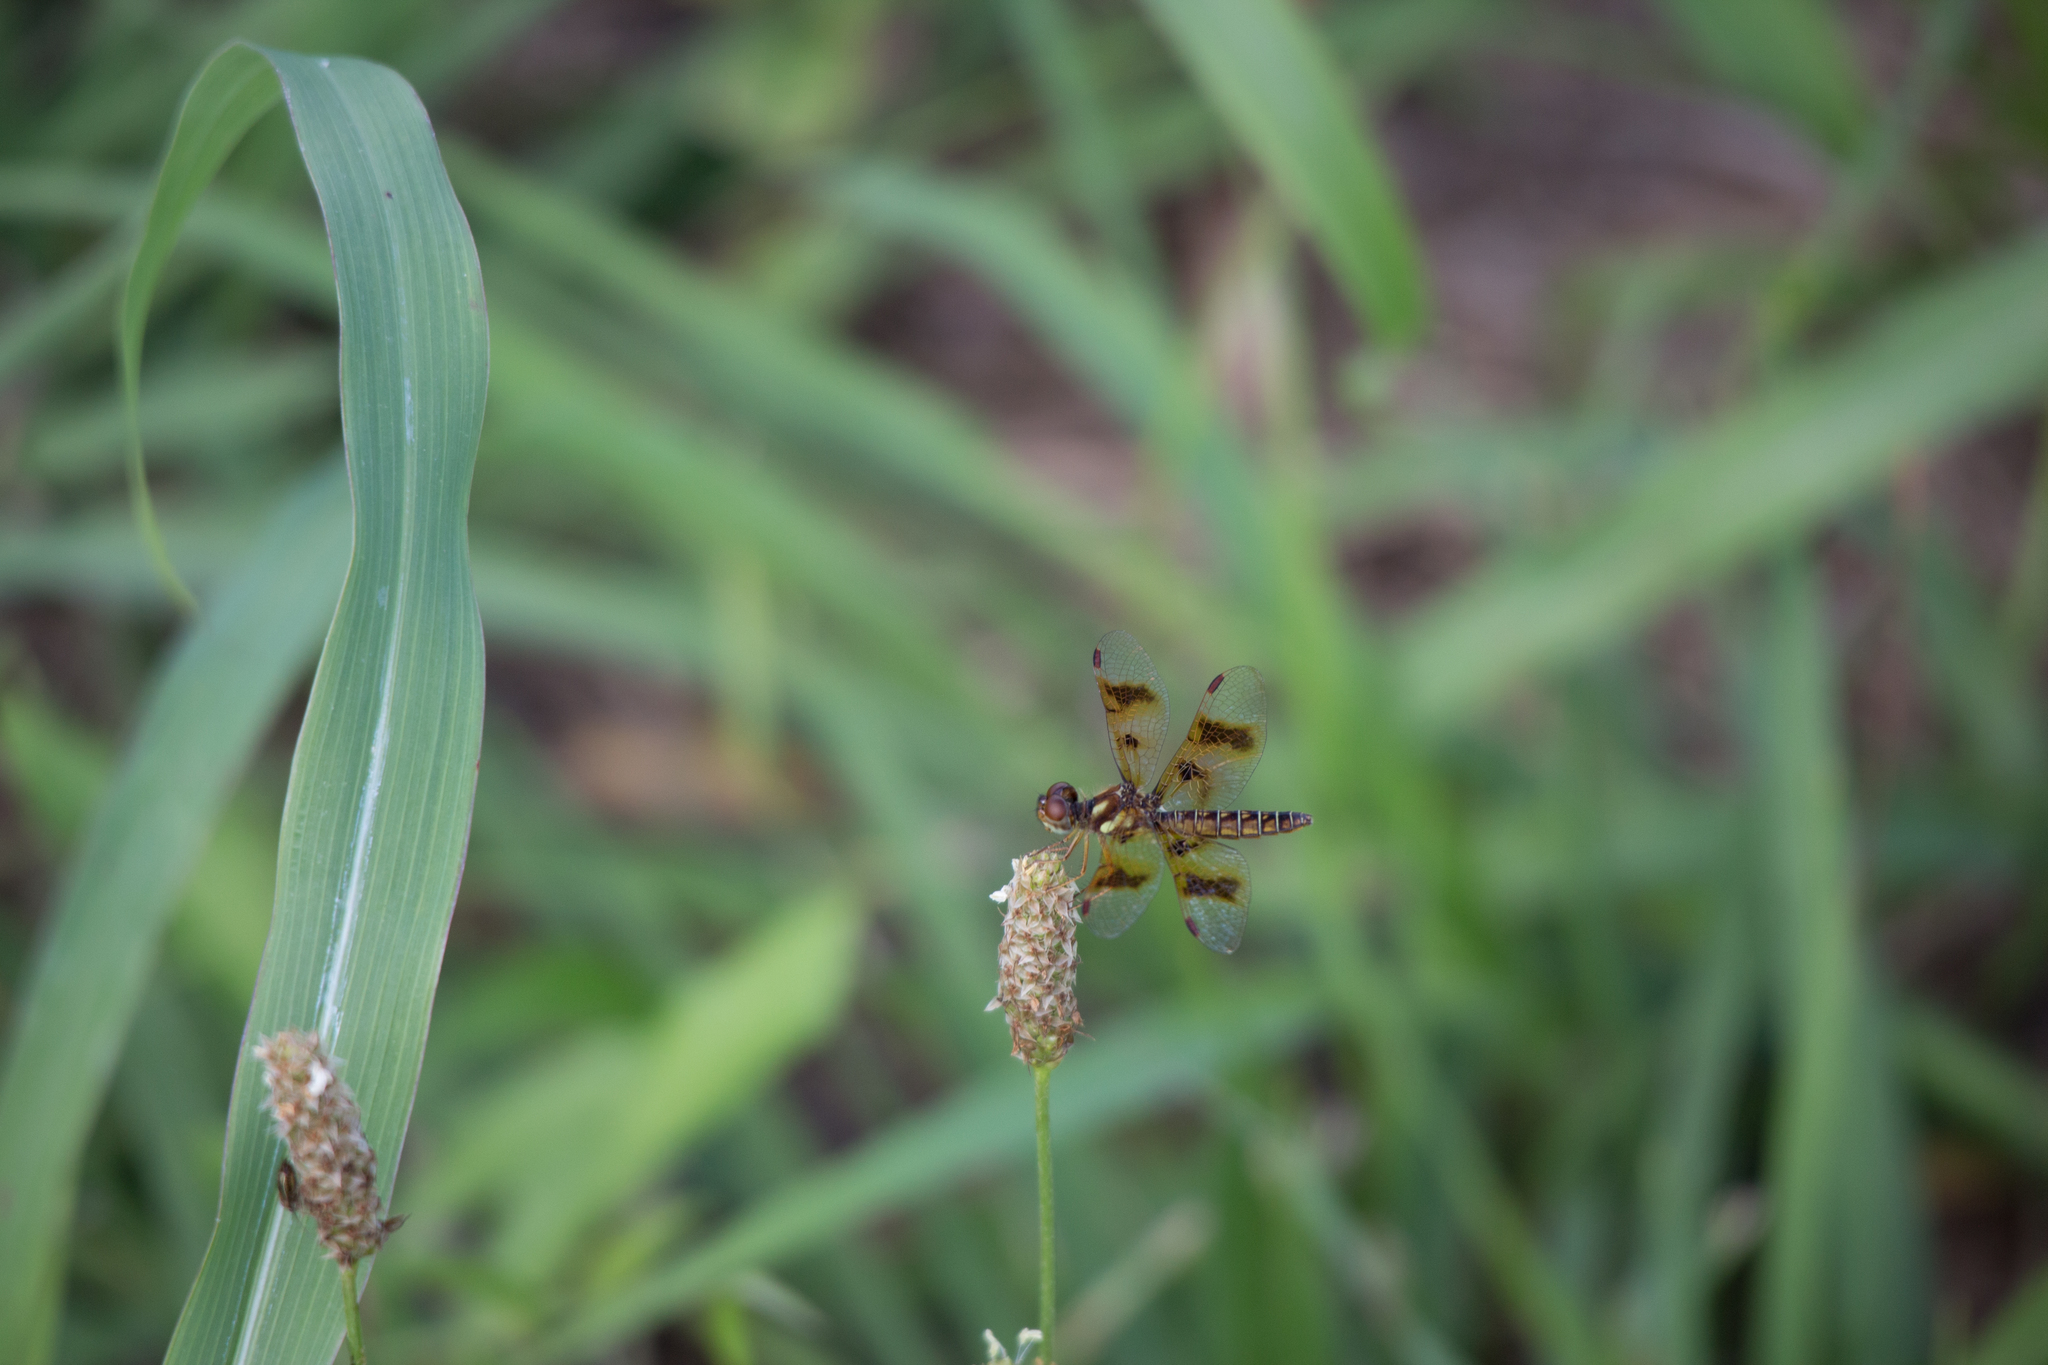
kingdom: Animalia
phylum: Arthropoda
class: Insecta
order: Odonata
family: Libellulidae
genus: Perithemis
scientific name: Perithemis tenera
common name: Eastern amberwing
